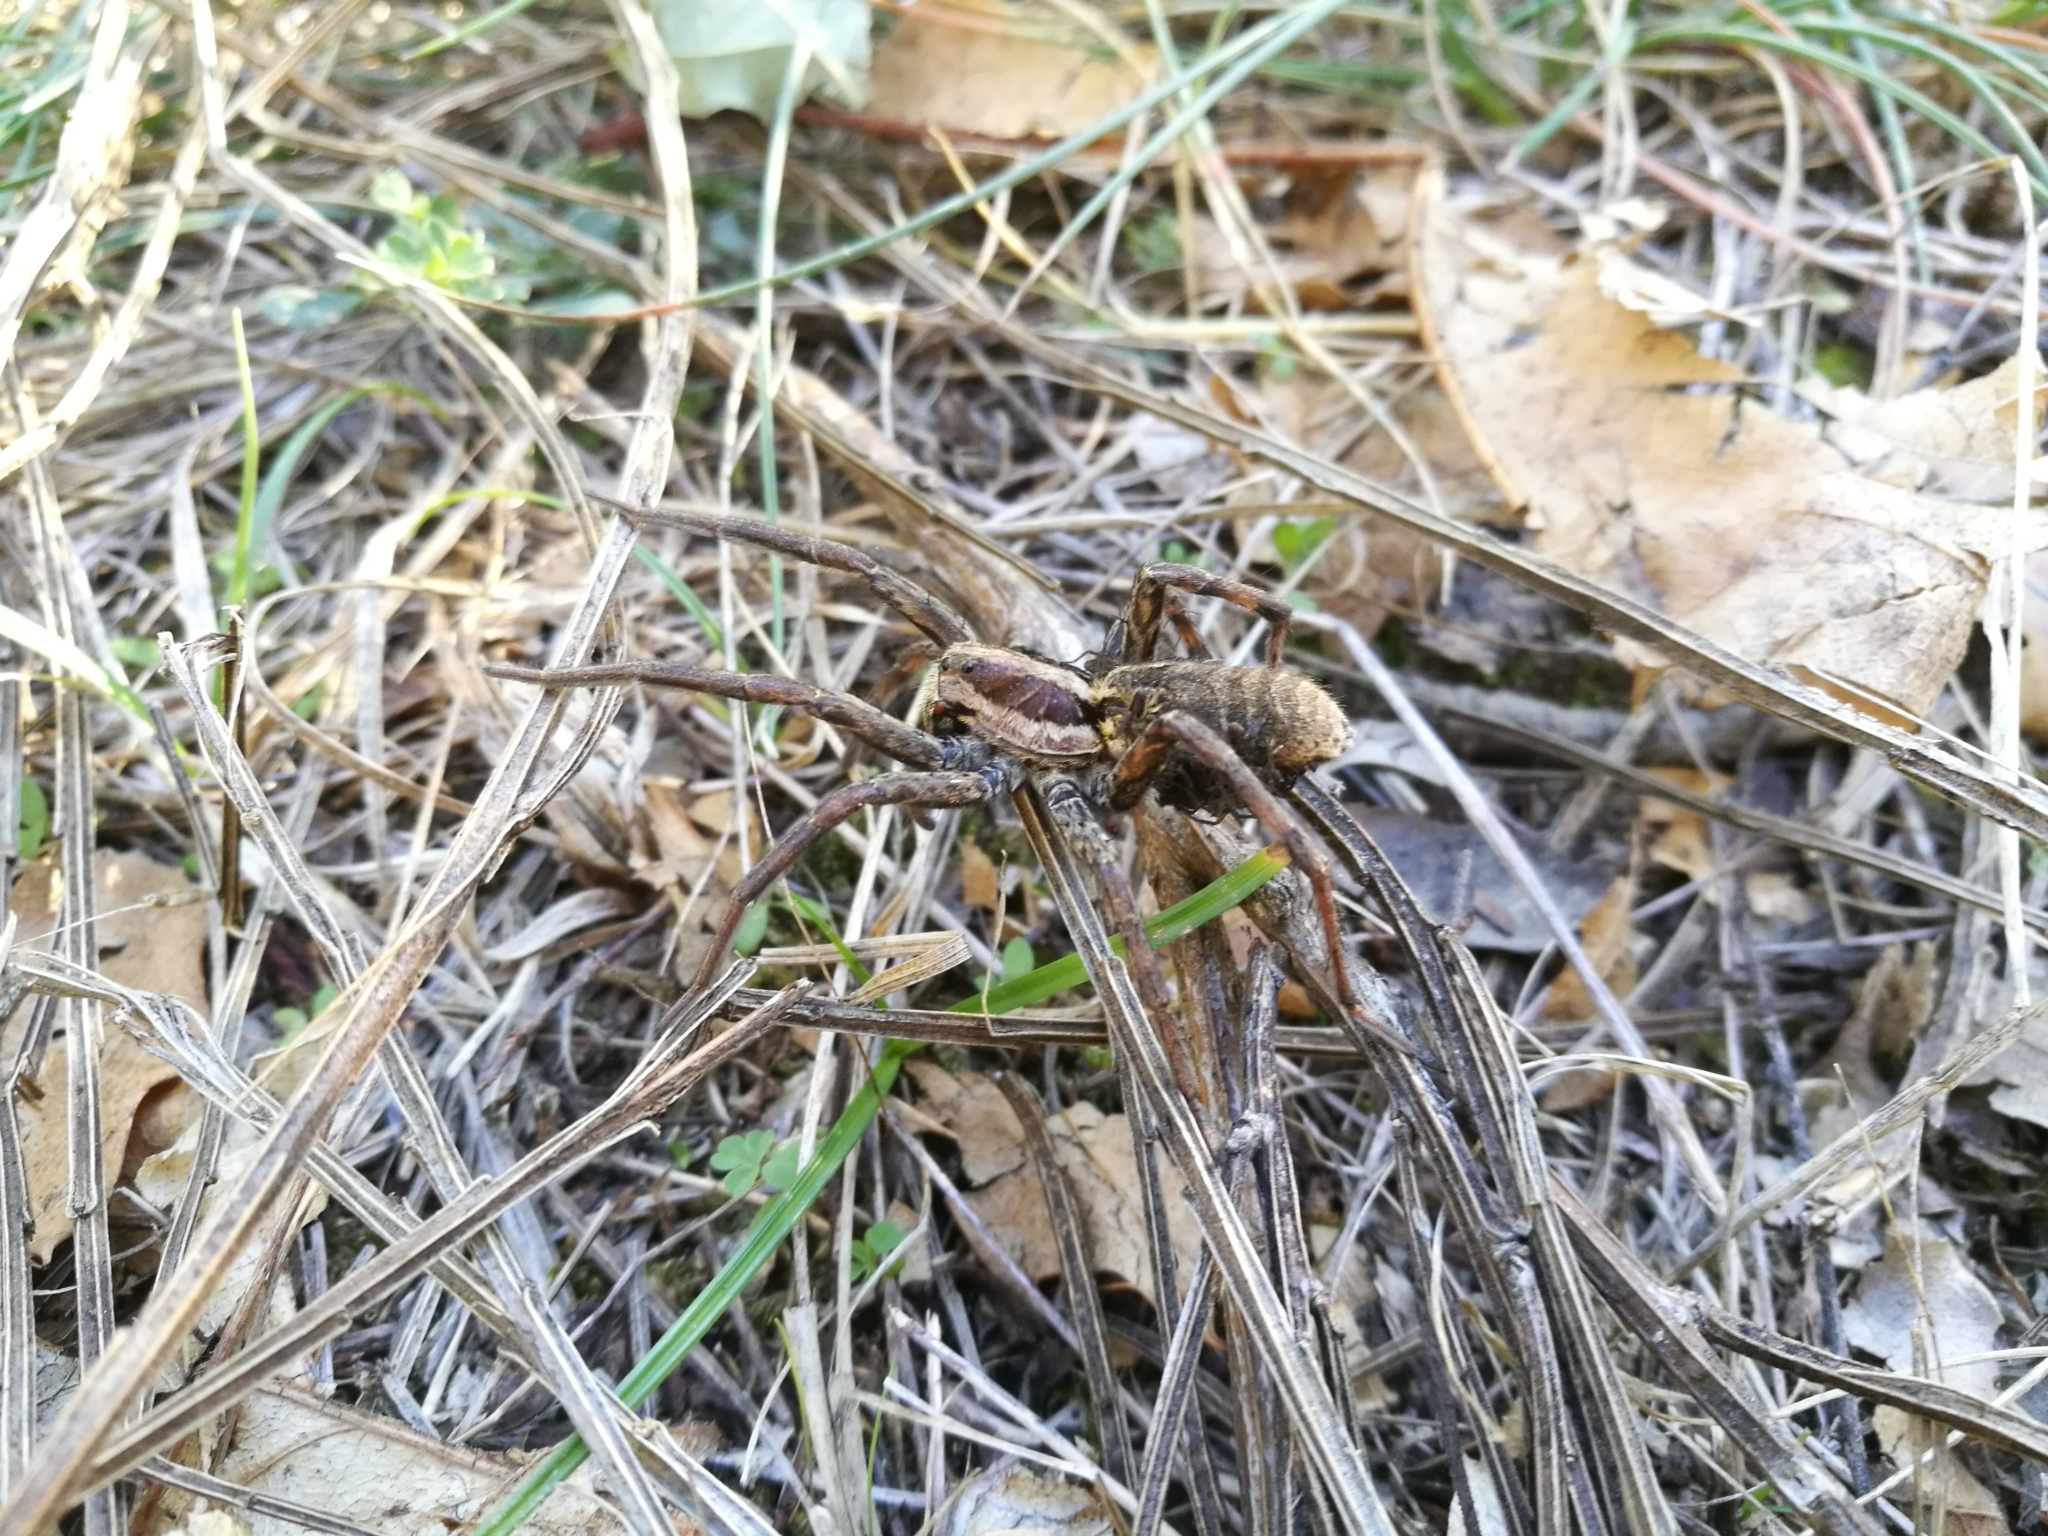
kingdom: Animalia
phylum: Arthropoda
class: Arachnida
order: Araneae
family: Lycosidae
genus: Hogna
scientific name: Hogna radiata
